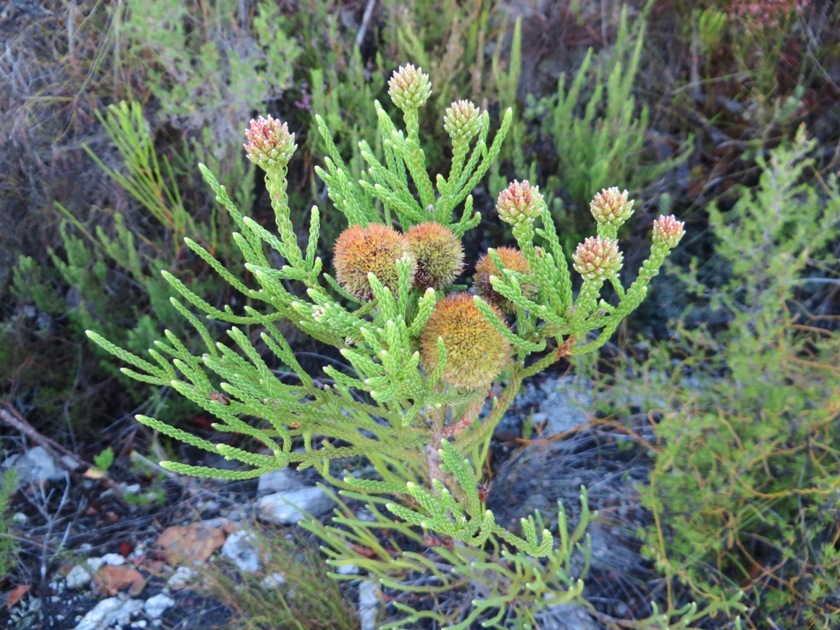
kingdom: Plantae
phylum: Tracheophyta
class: Magnoliopsida
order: Bruniales
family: Bruniaceae
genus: Brunia
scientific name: Brunia fragarioides
